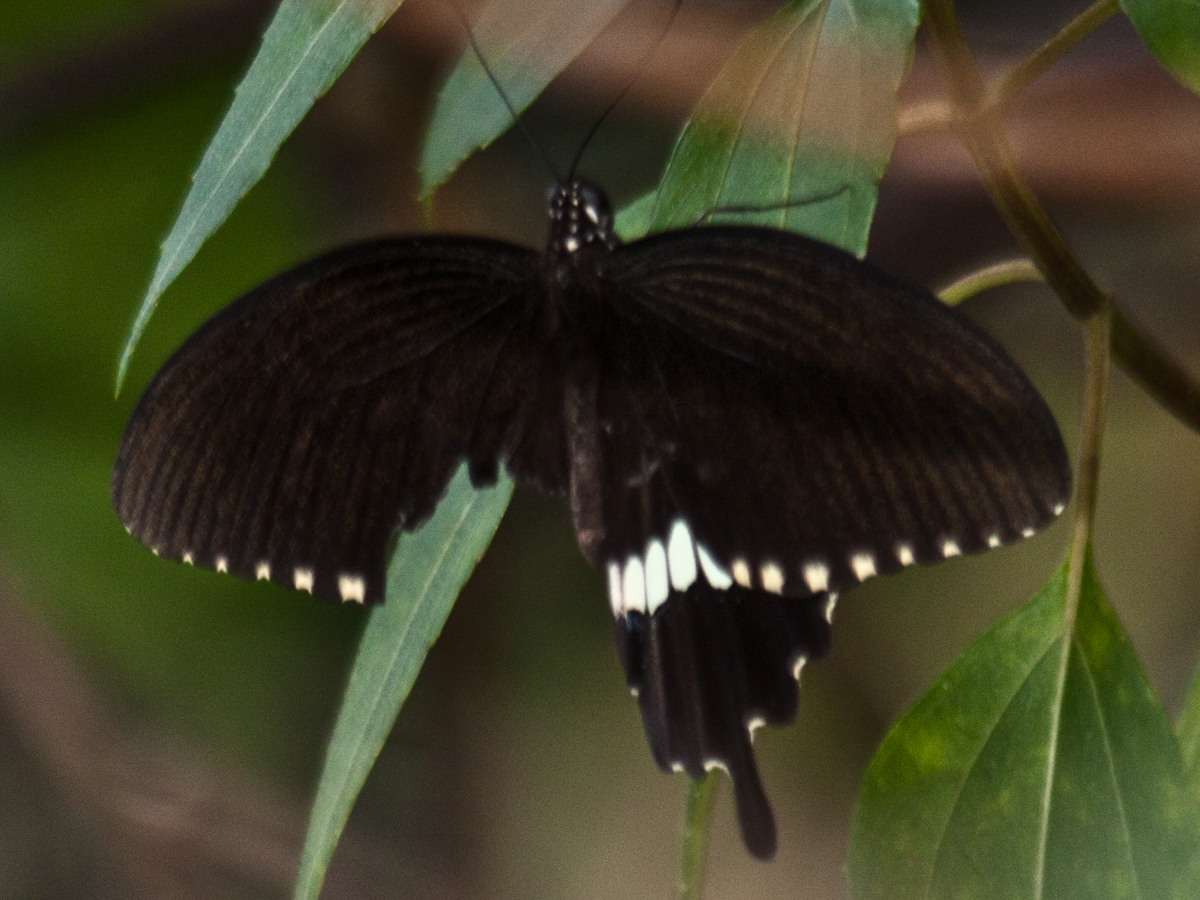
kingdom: Animalia
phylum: Arthropoda
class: Insecta
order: Lepidoptera
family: Papilionidae
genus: Papilio
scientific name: Papilio polytes
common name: Common mormon
